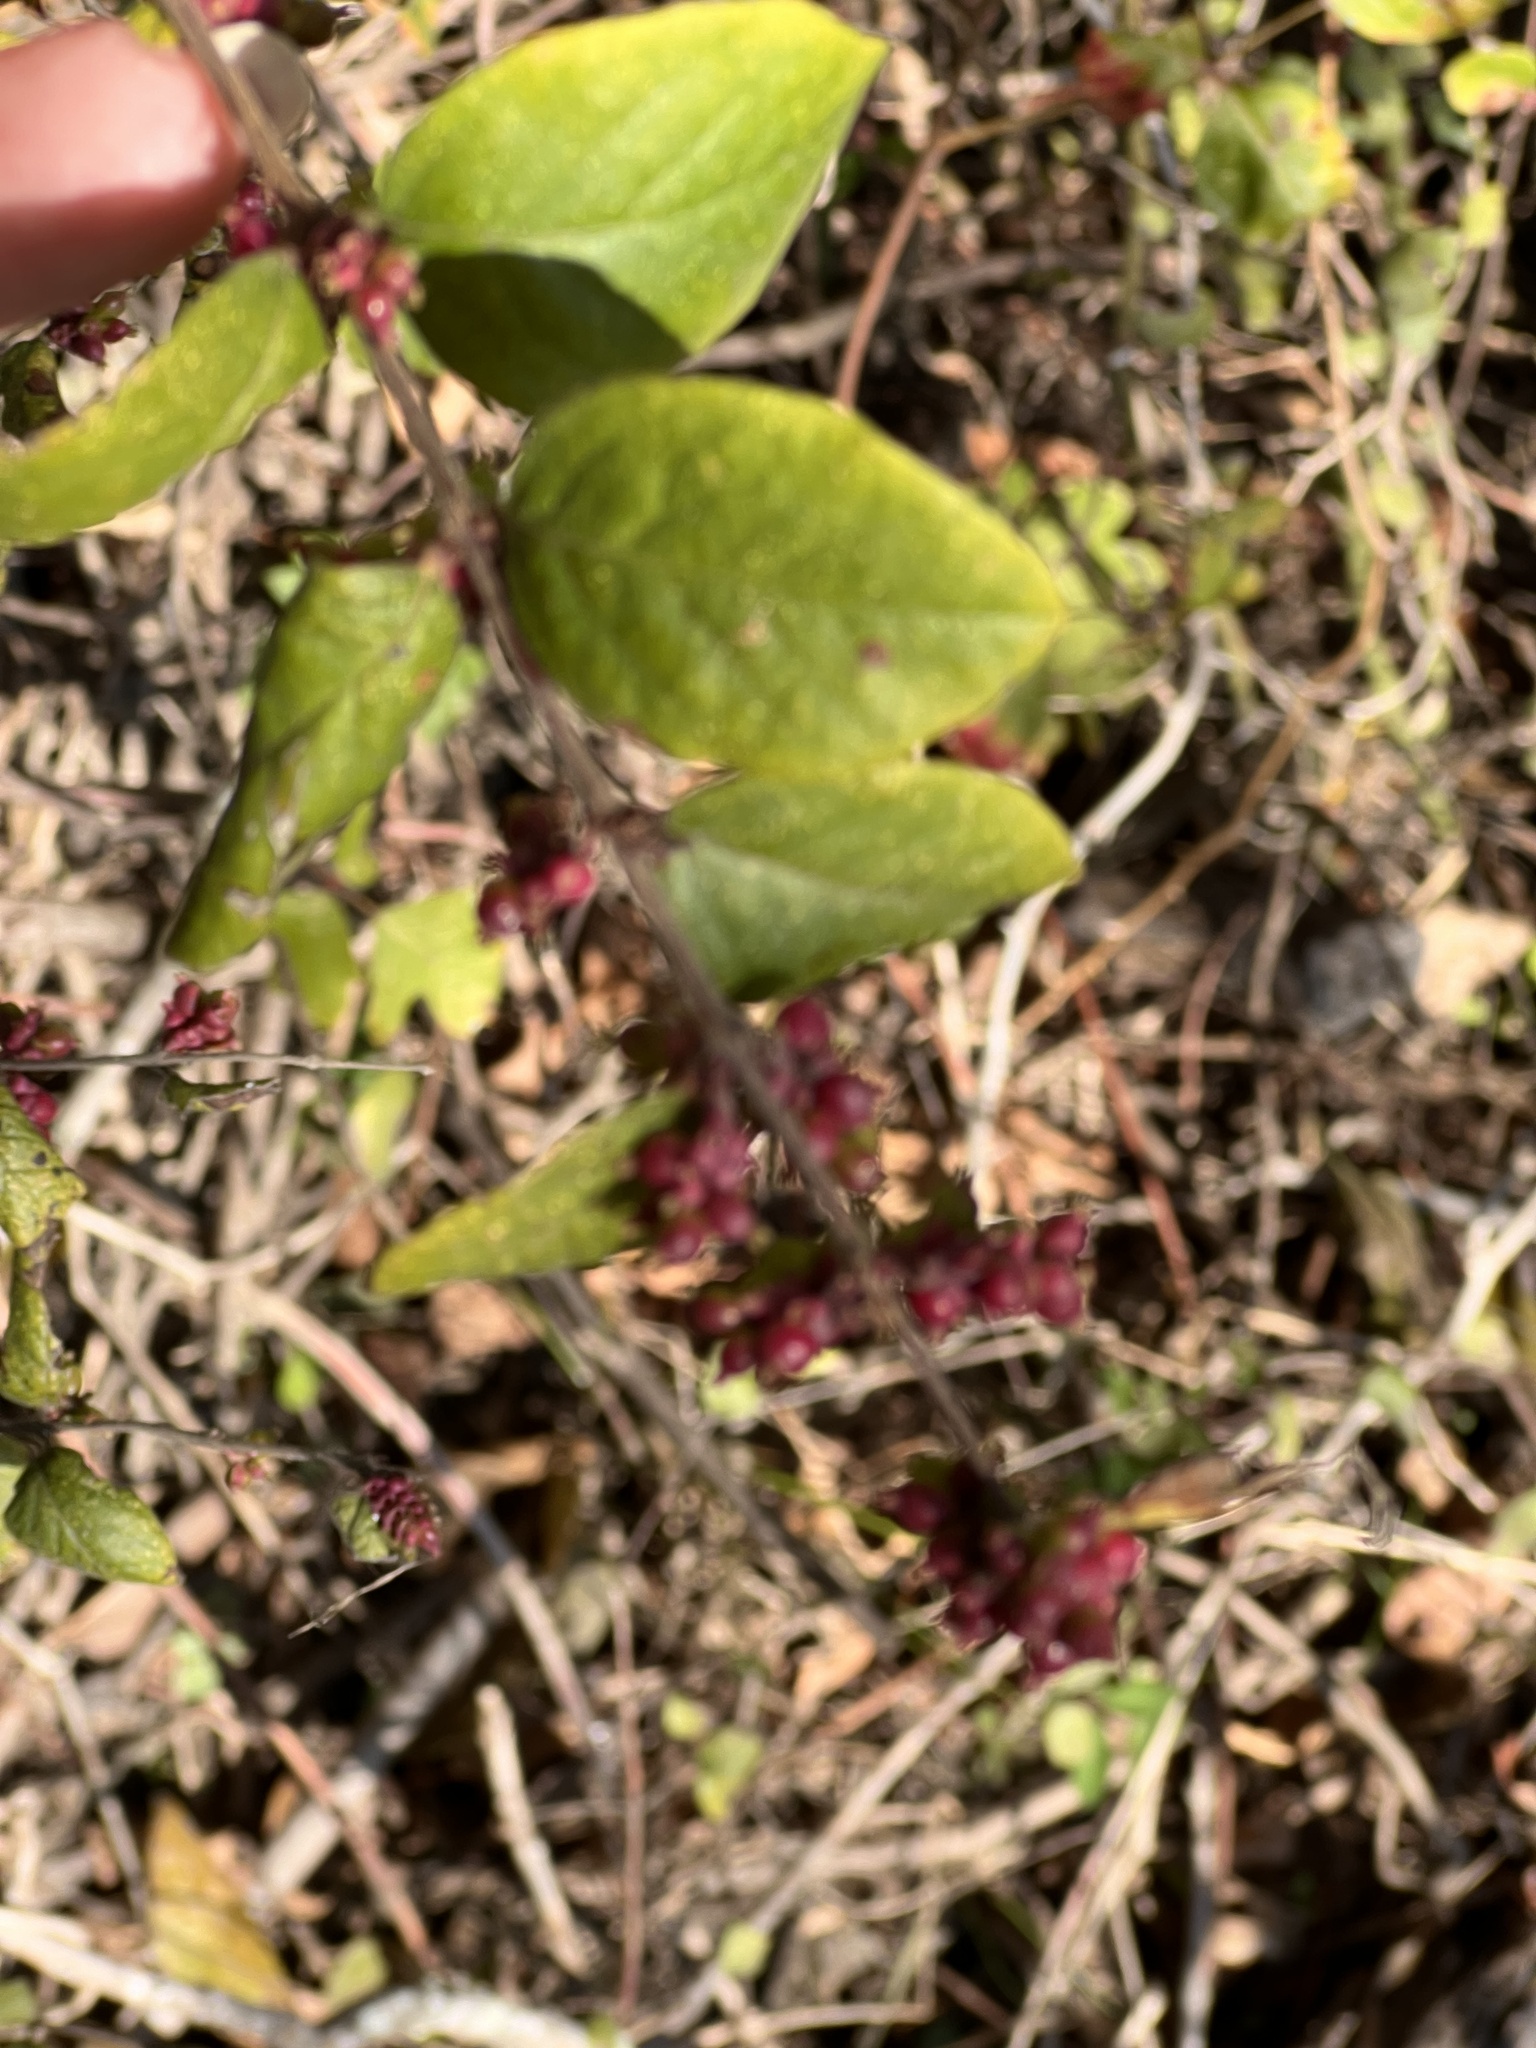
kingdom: Plantae
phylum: Tracheophyta
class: Magnoliopsida
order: Dipsacales
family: Caprifoliaceae
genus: Symphoricarpos
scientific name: Symphoricarpos orbiculatus
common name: Coralberry
